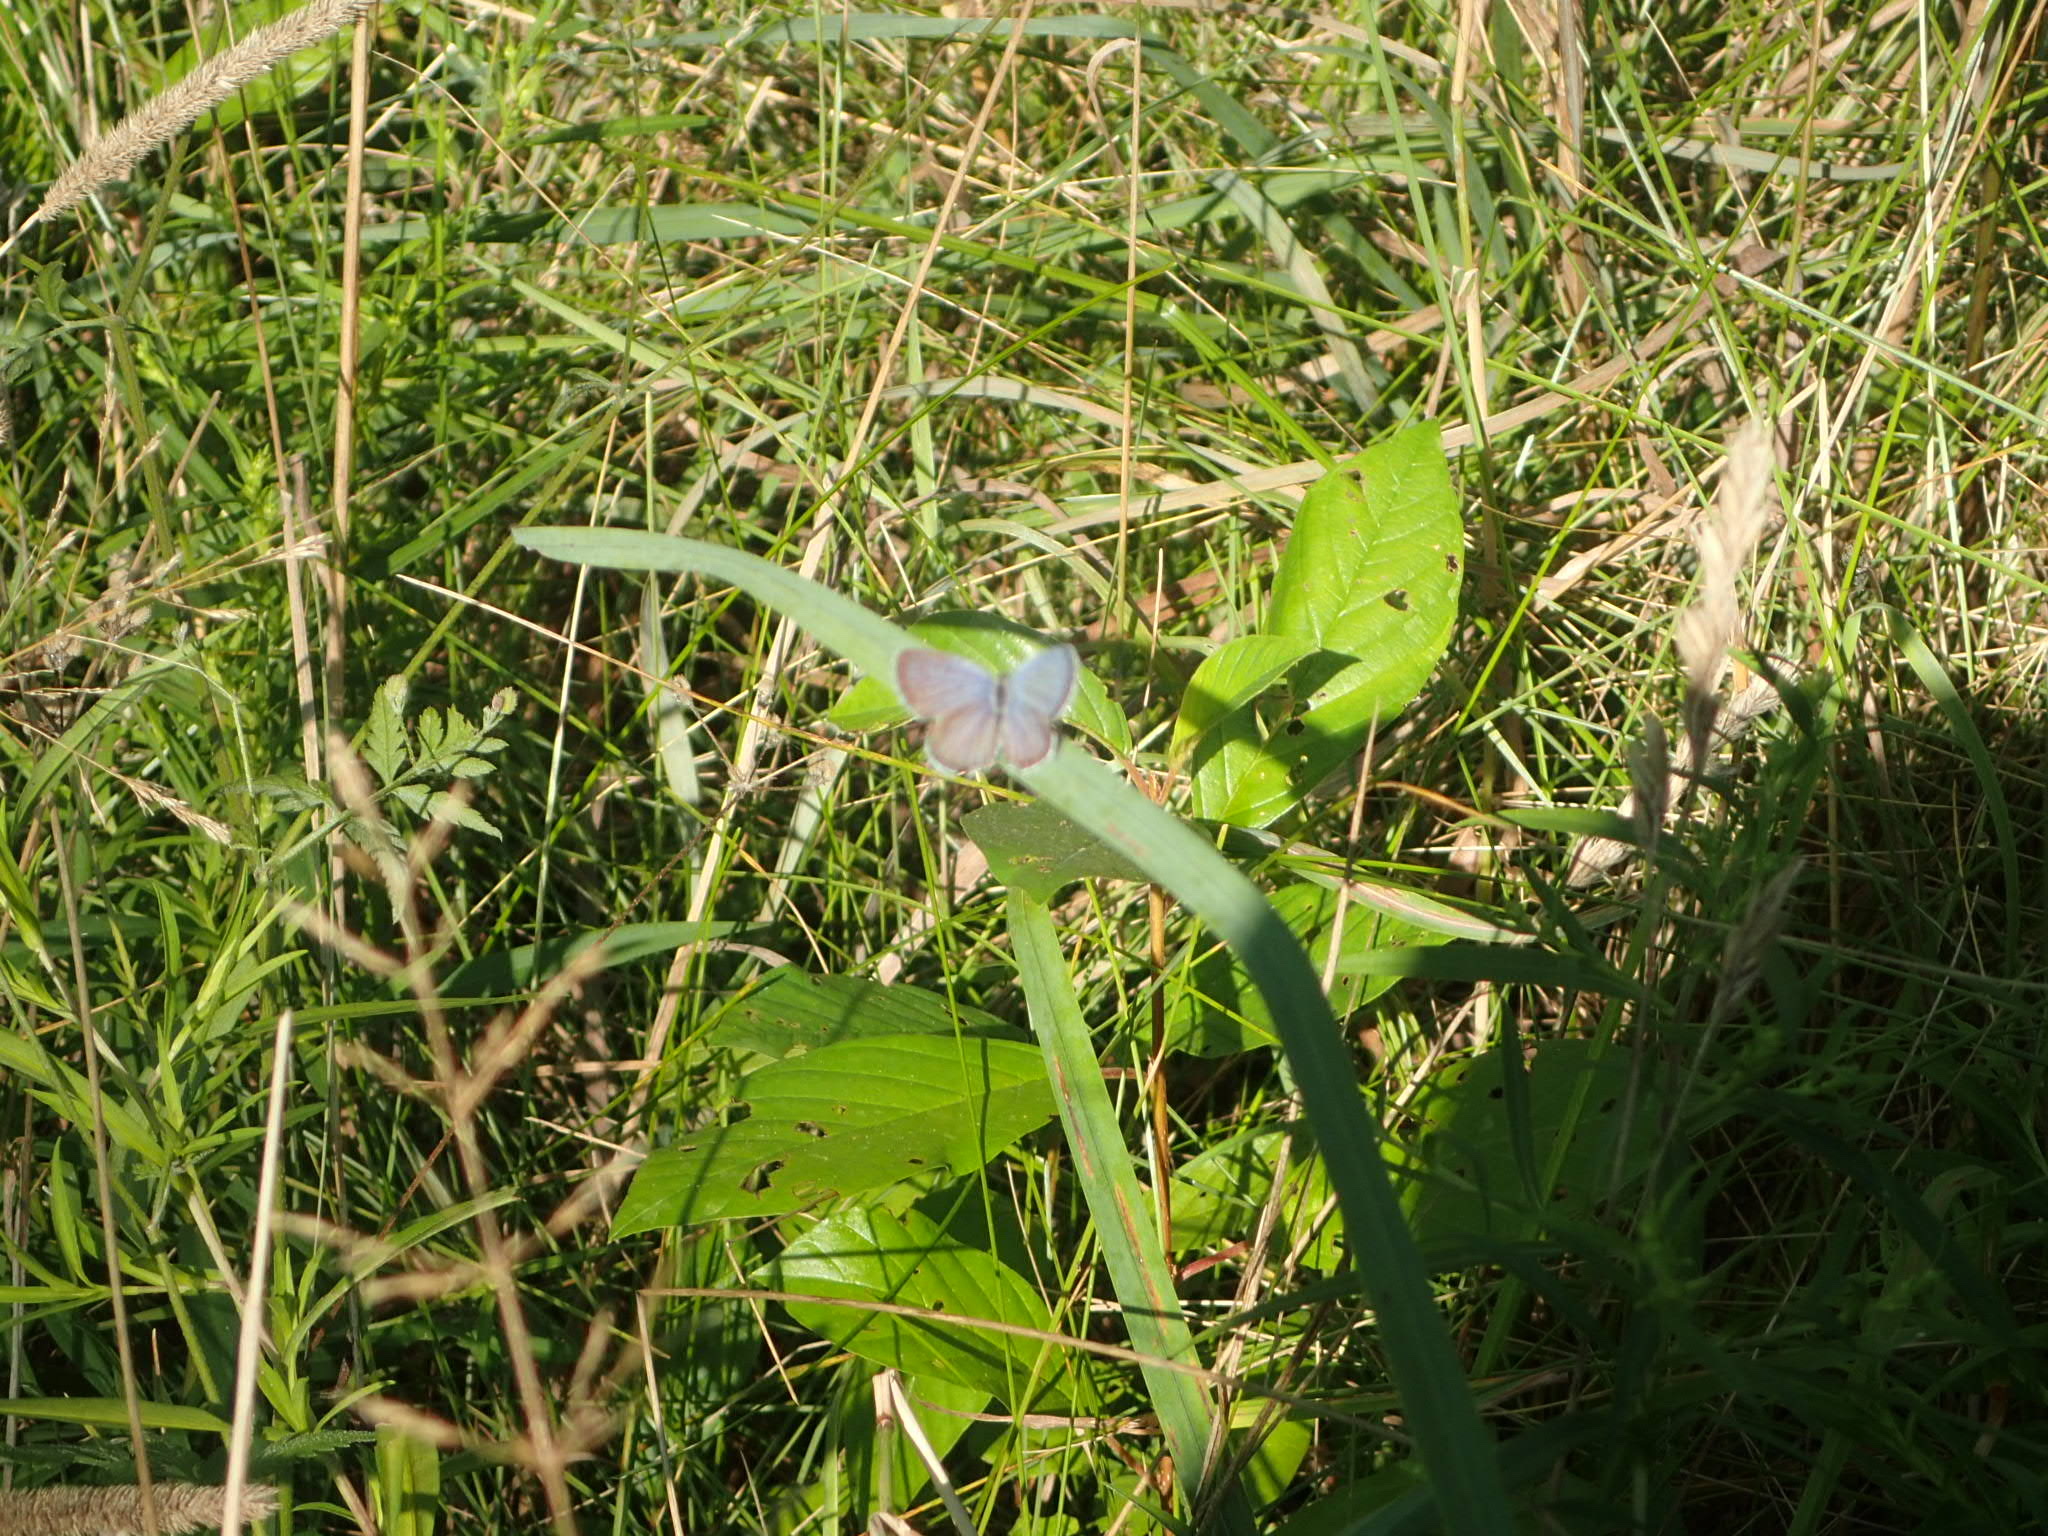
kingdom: Animalia
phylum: Arthropoda
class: Insecta
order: Lepidoptera
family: Lycaenidae
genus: Elkalyce
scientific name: Elkalyce comyntas
